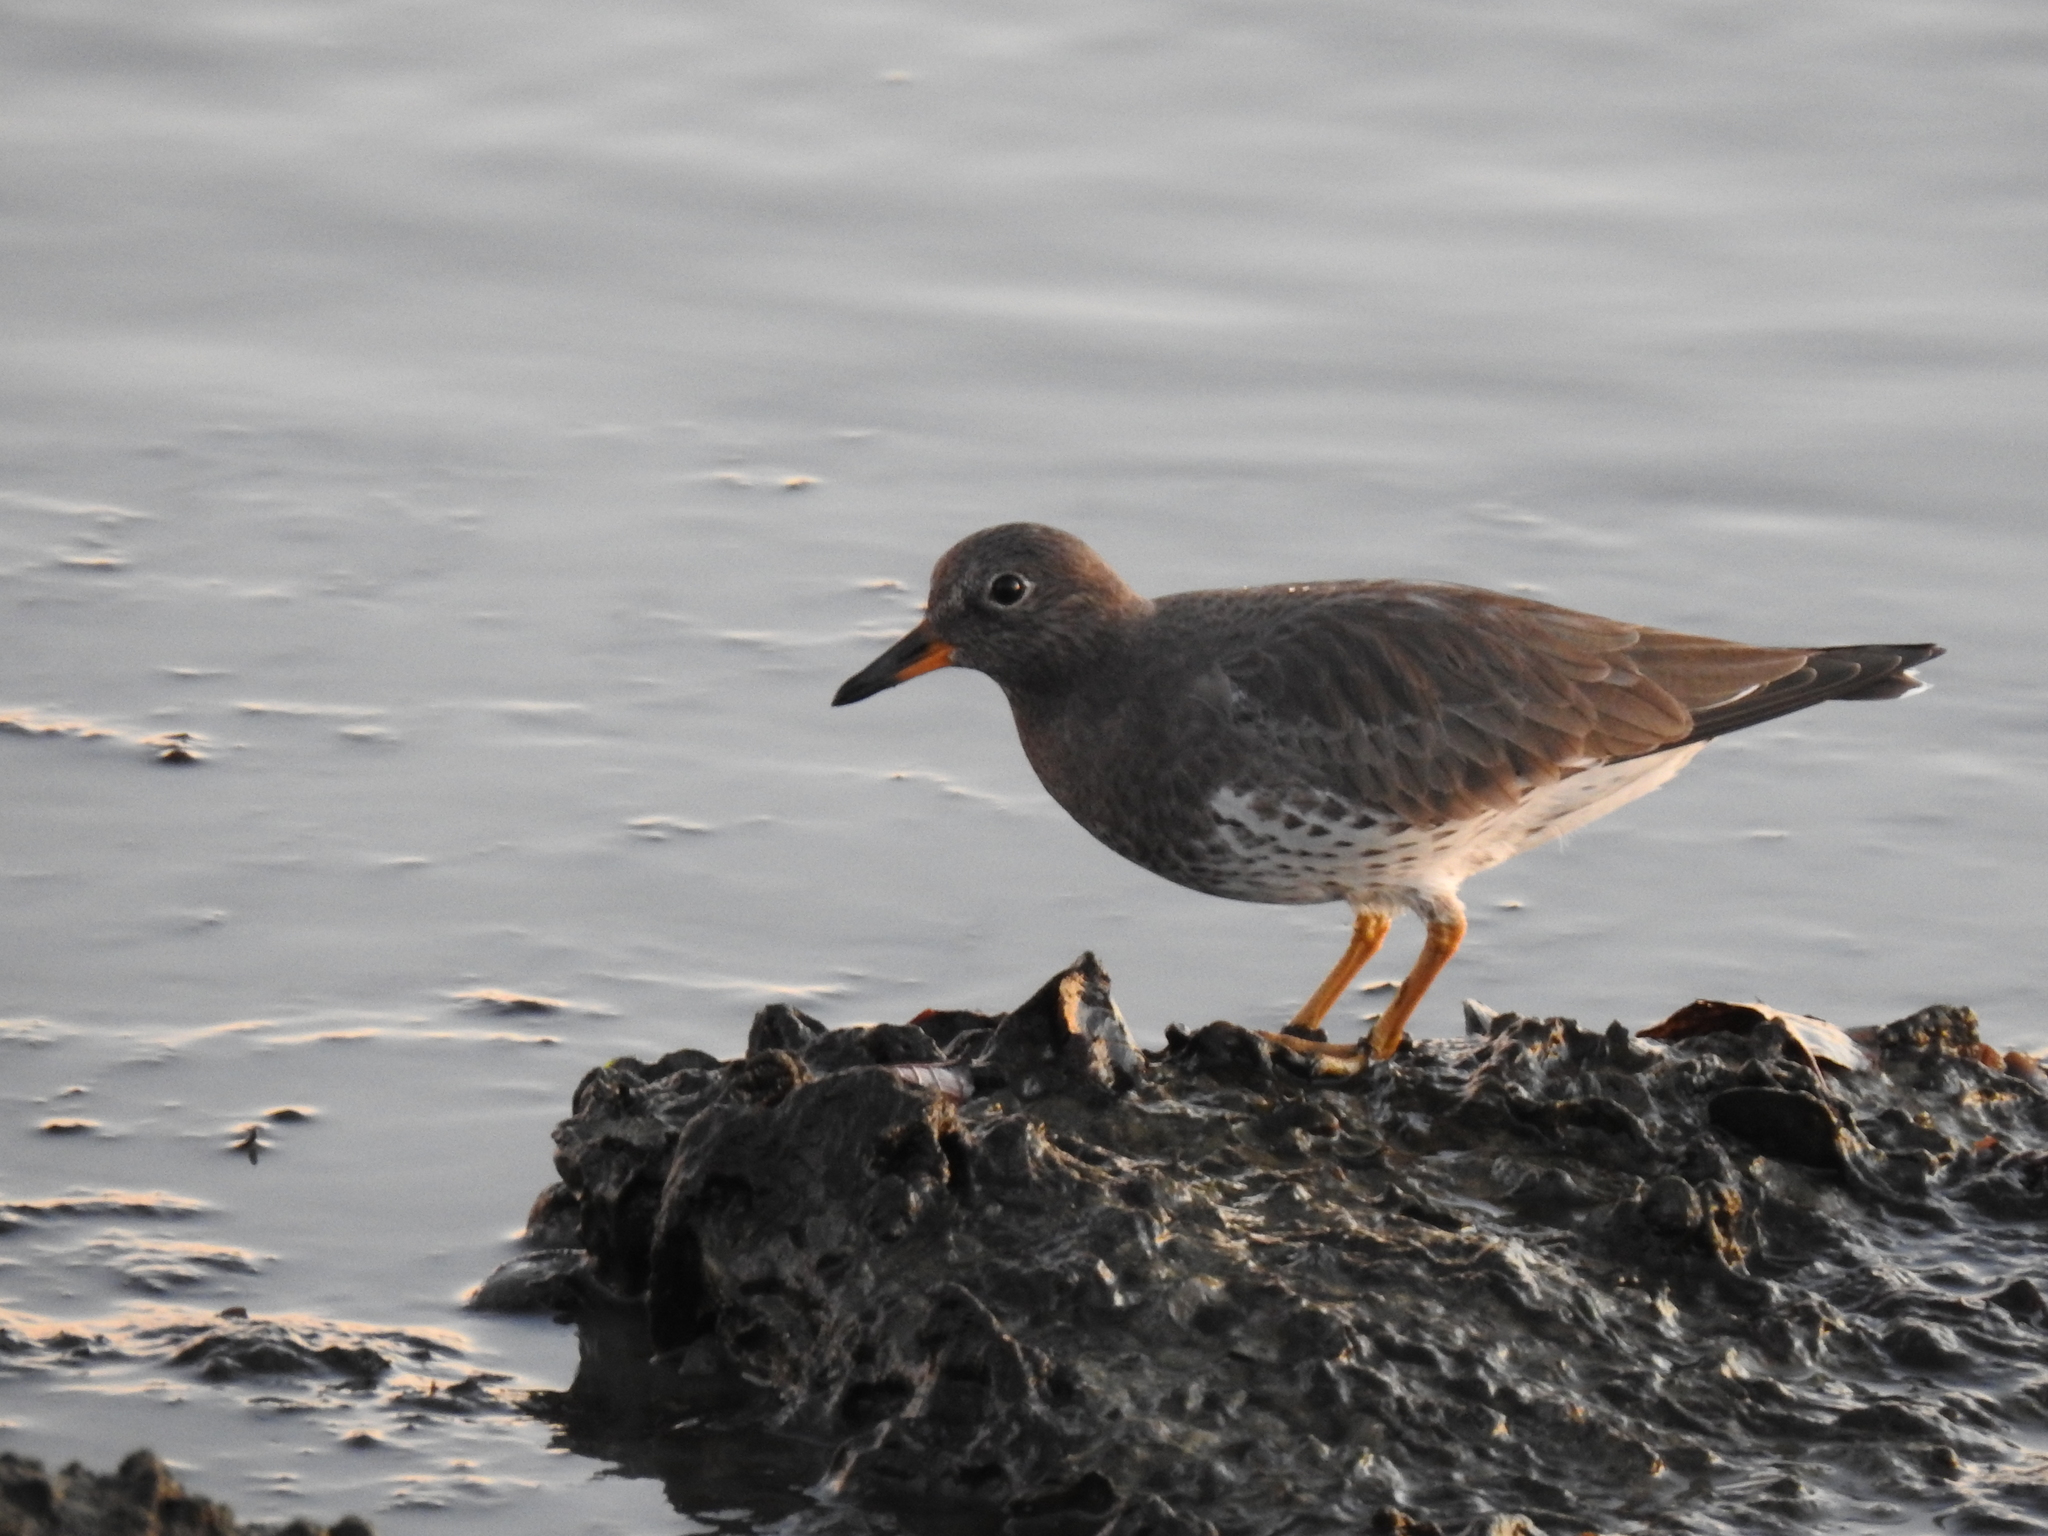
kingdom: Animalia
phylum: Chordata
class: Aves
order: Charadriiformes
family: Scolopacidae
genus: Calidris
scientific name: Calidris virgata
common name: Surfbird
